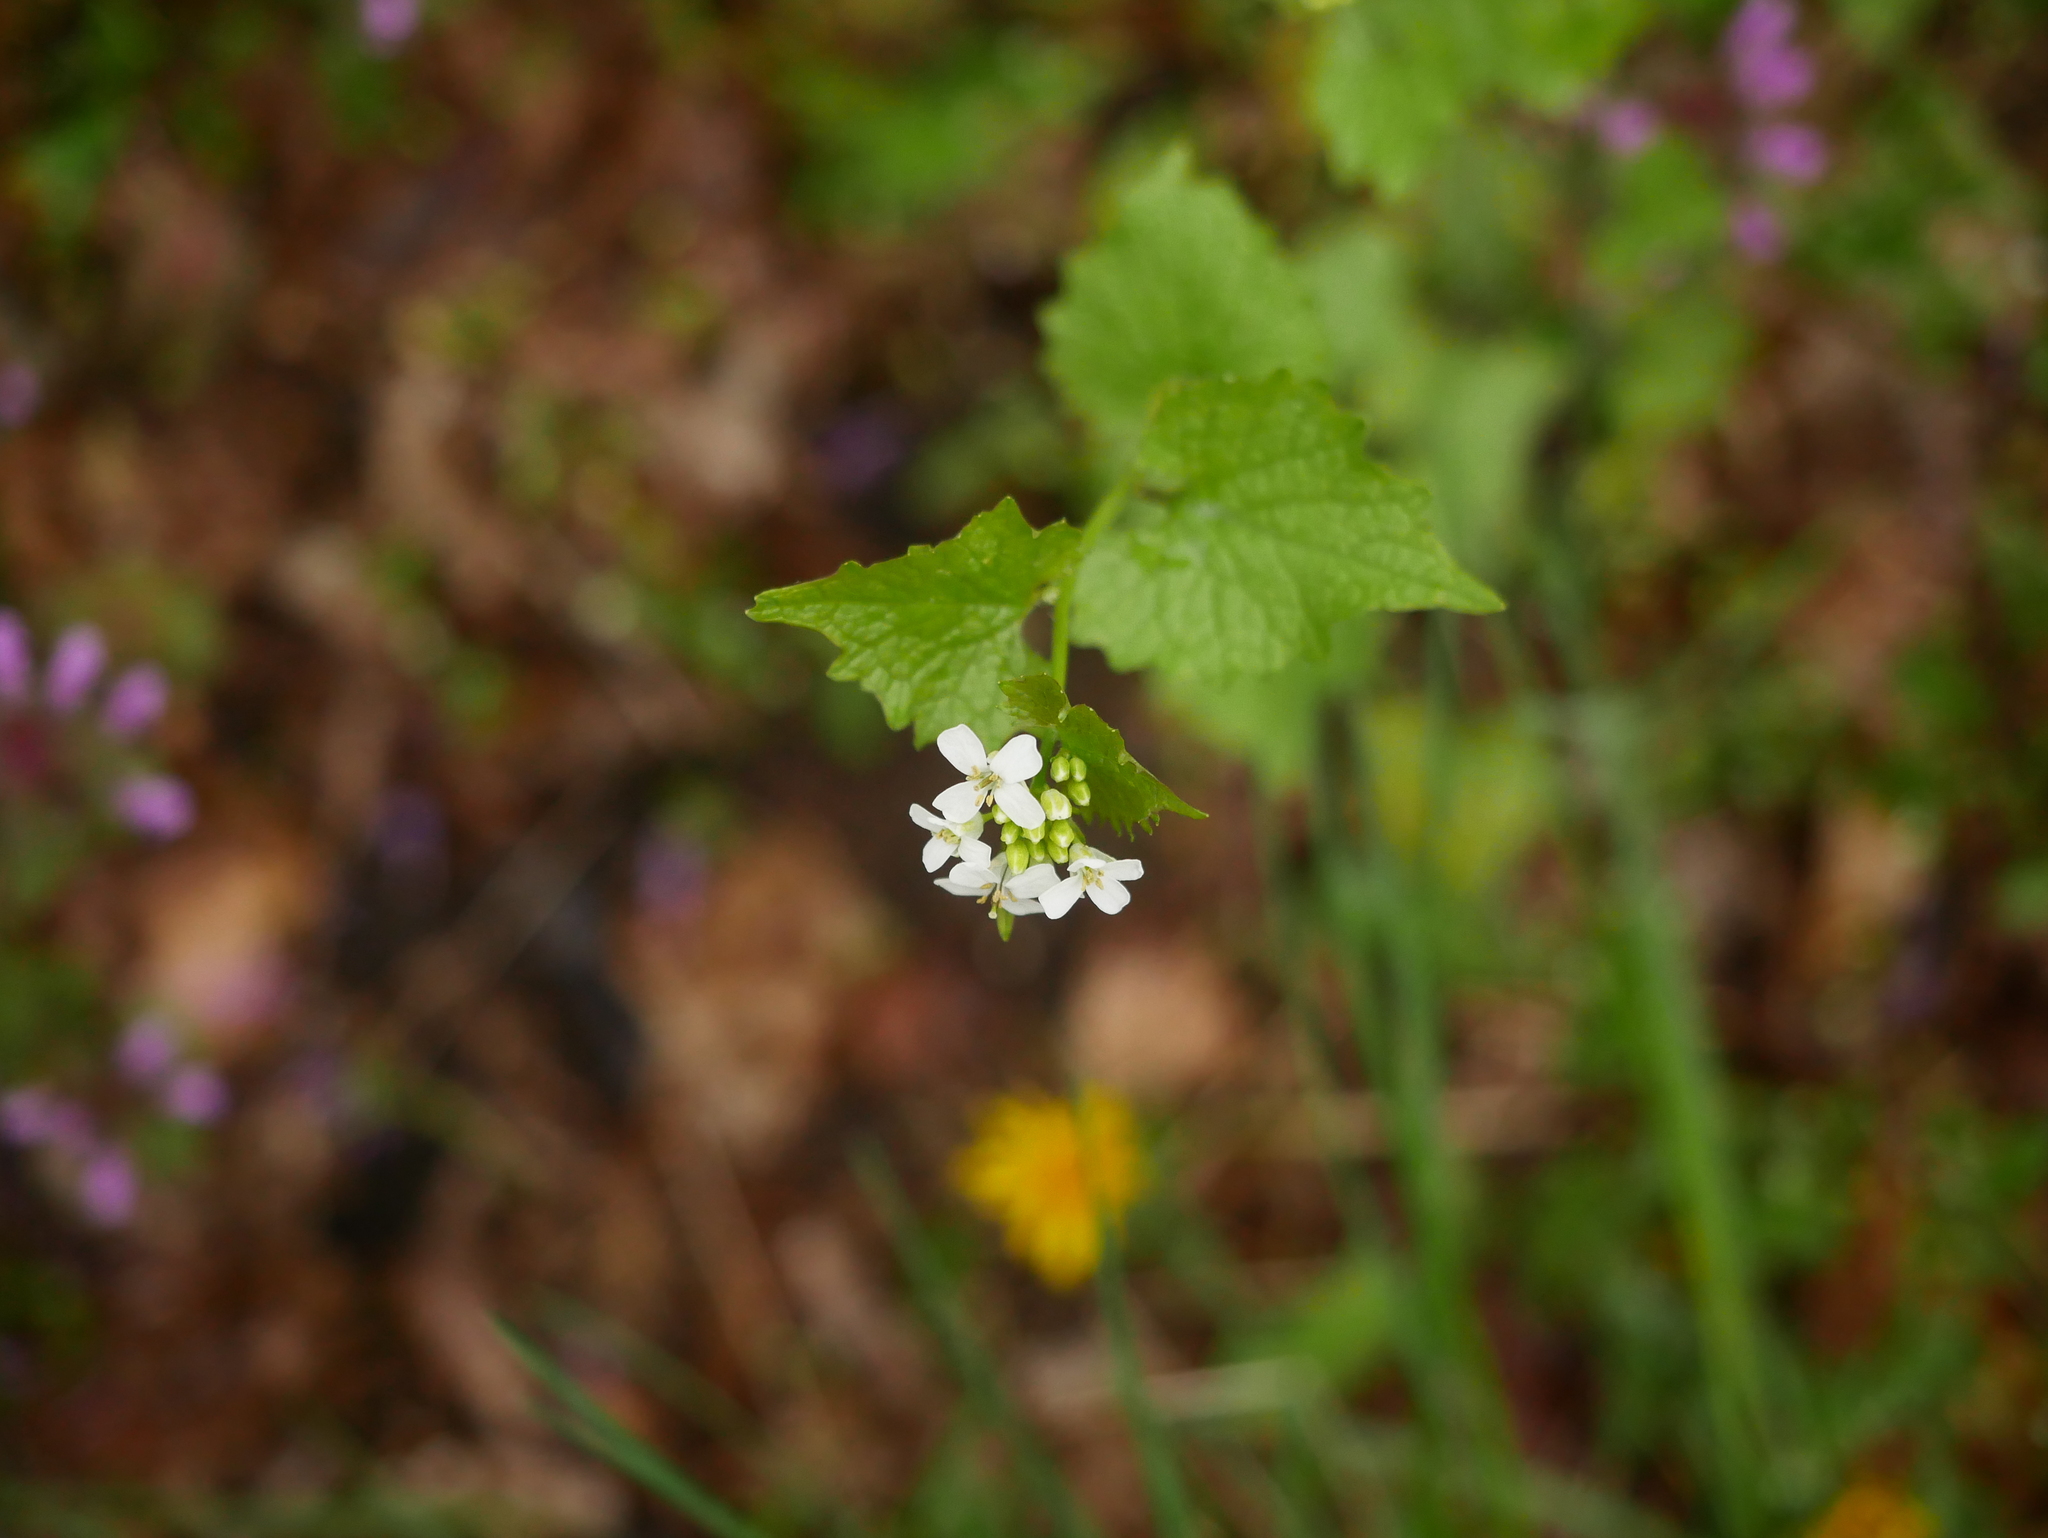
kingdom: Plantae
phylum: Tracheophyta
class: Magnoliopsida
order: Brassicales
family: Brassicaceae
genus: Alliaria
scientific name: Alliaria petiolata
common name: Garlic mustard
